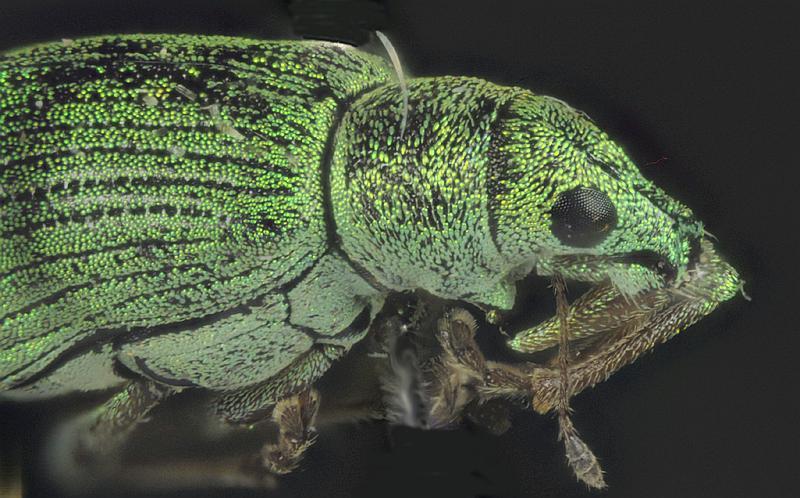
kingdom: Animalia
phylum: Arthropoda
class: Insecta
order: Coleoptera
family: Curculionidae
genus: Polydrusus
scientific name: Polydrusus formosus
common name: Weevil
